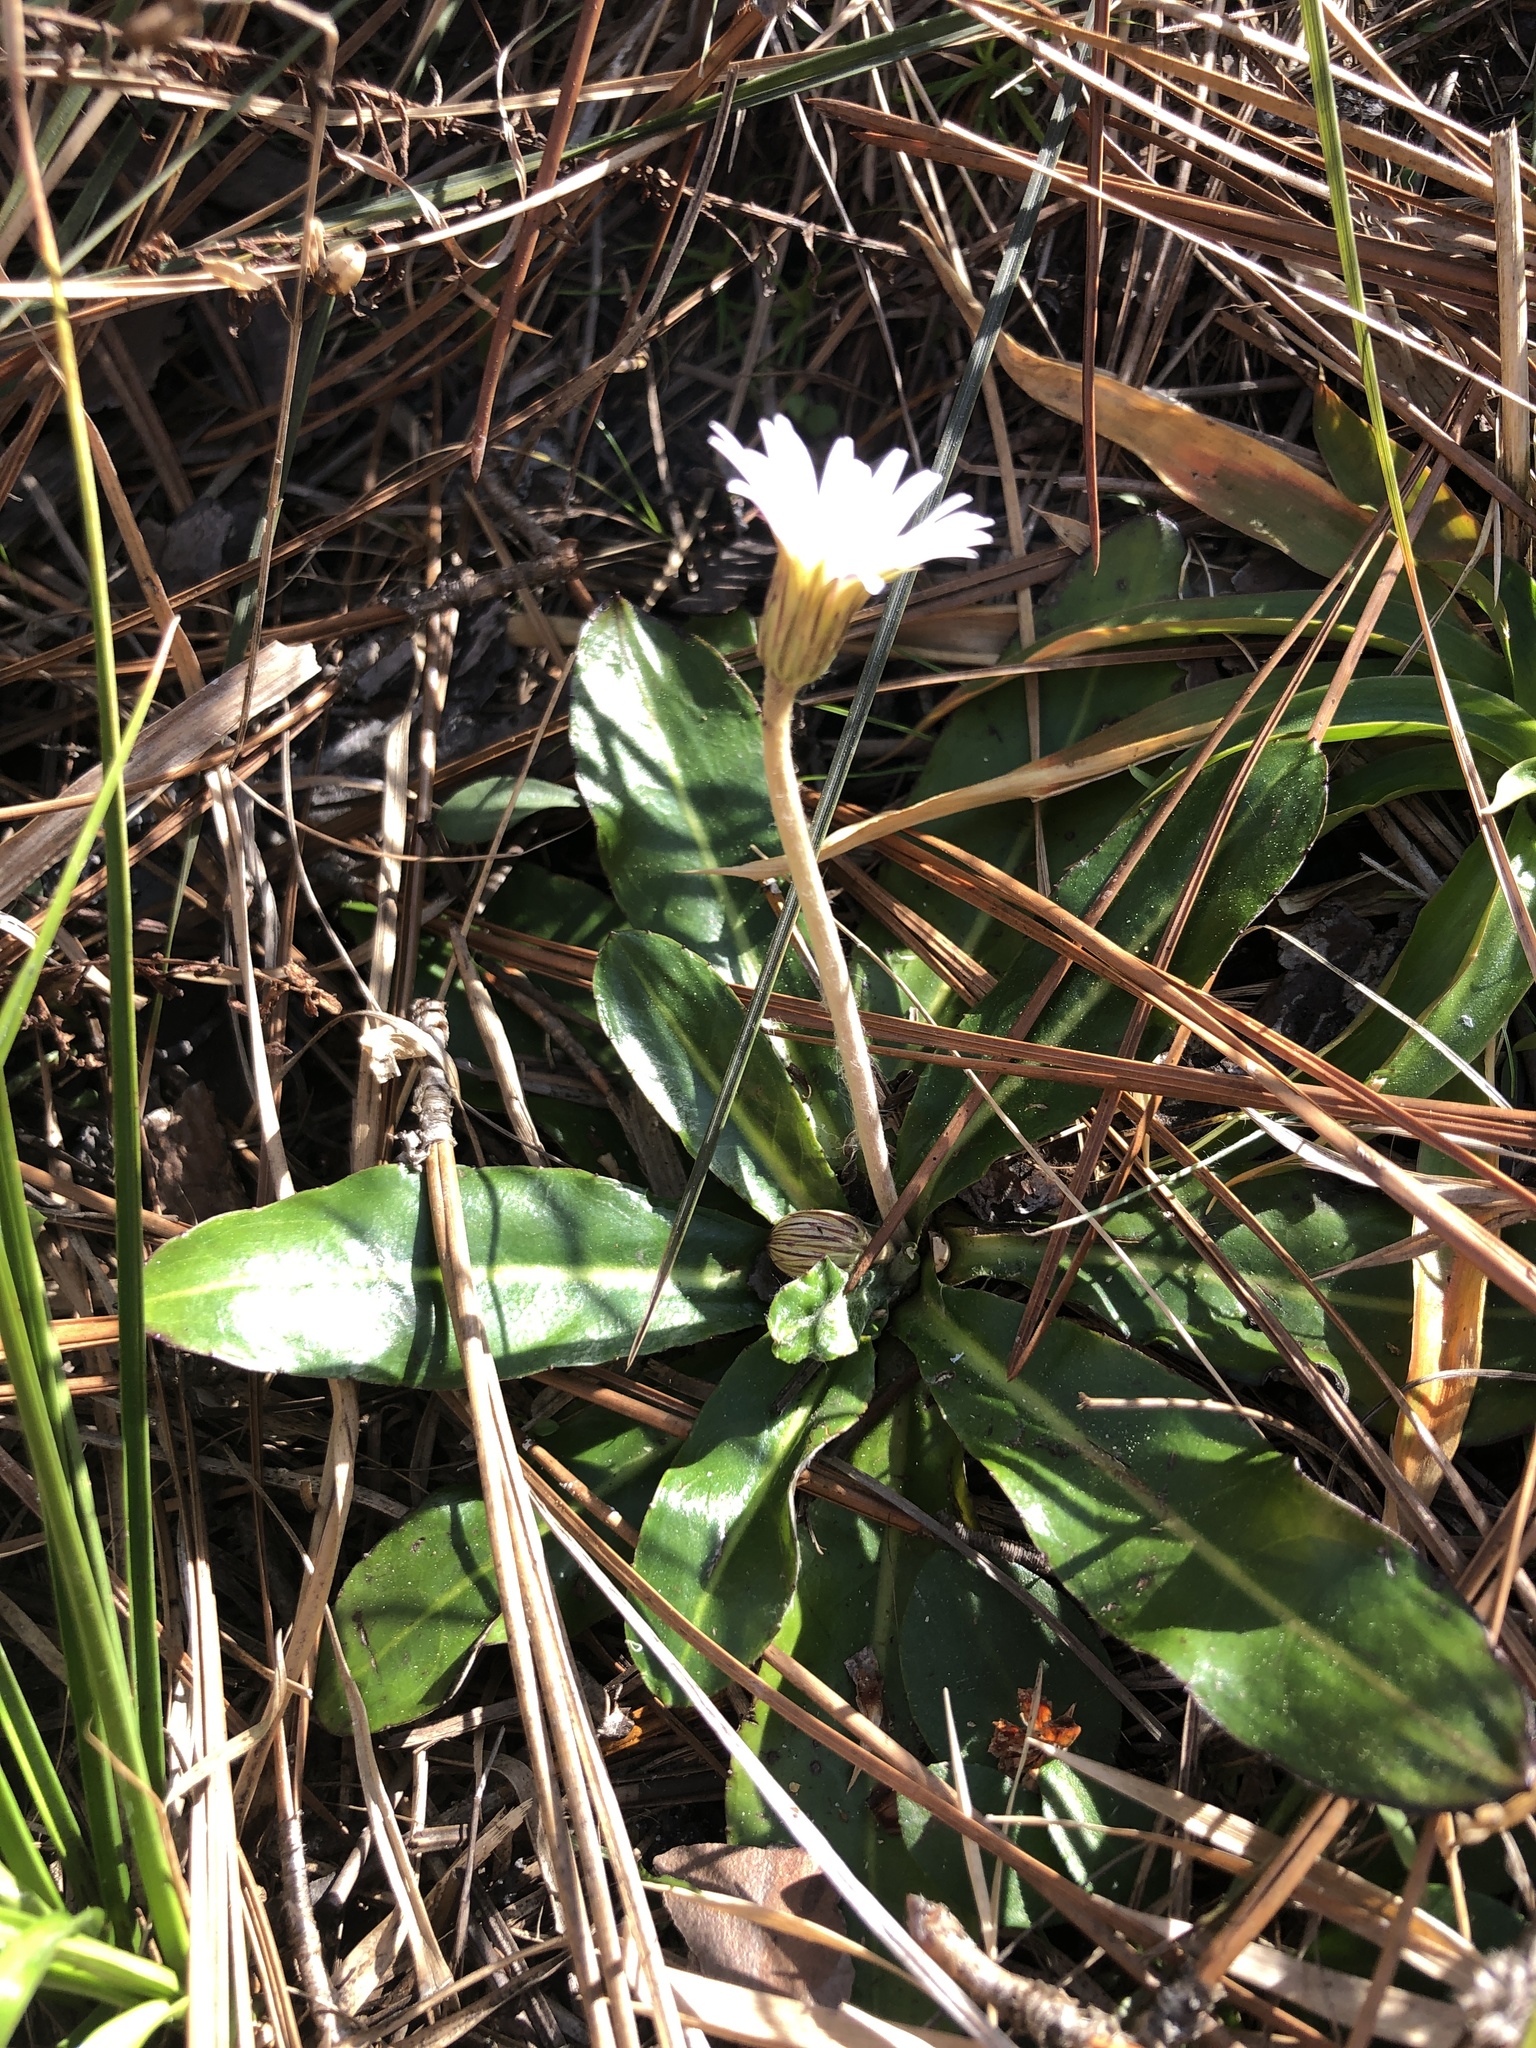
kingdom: Plantae
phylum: Tracheophyta
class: Magnoliopsida
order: Asterales
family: Asteraceae
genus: Chaptalia
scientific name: Chaptalia tomentosa
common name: Woolly sunbonnet
